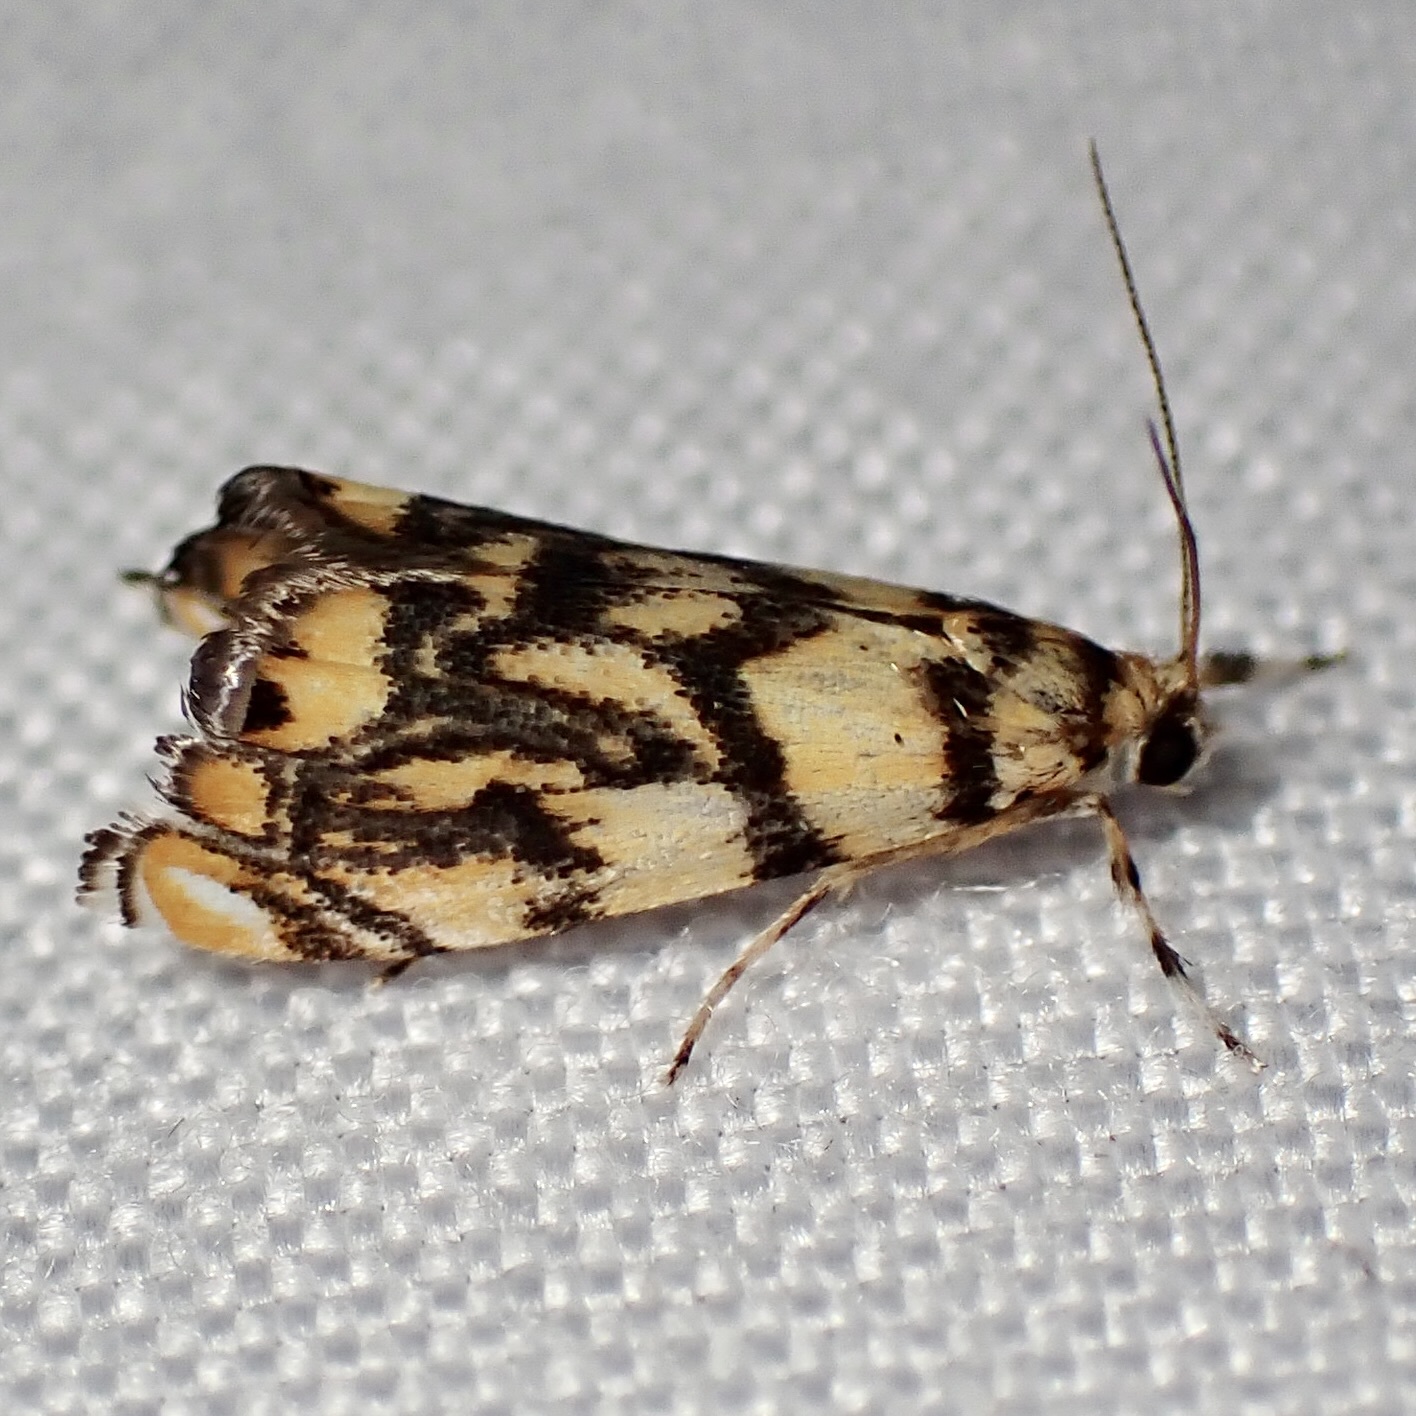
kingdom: Animalia
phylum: Arthropoda
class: Insecta
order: Lepidoptera
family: Crambidae
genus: Diptychophora
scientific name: Diptychophora harlequinalis
